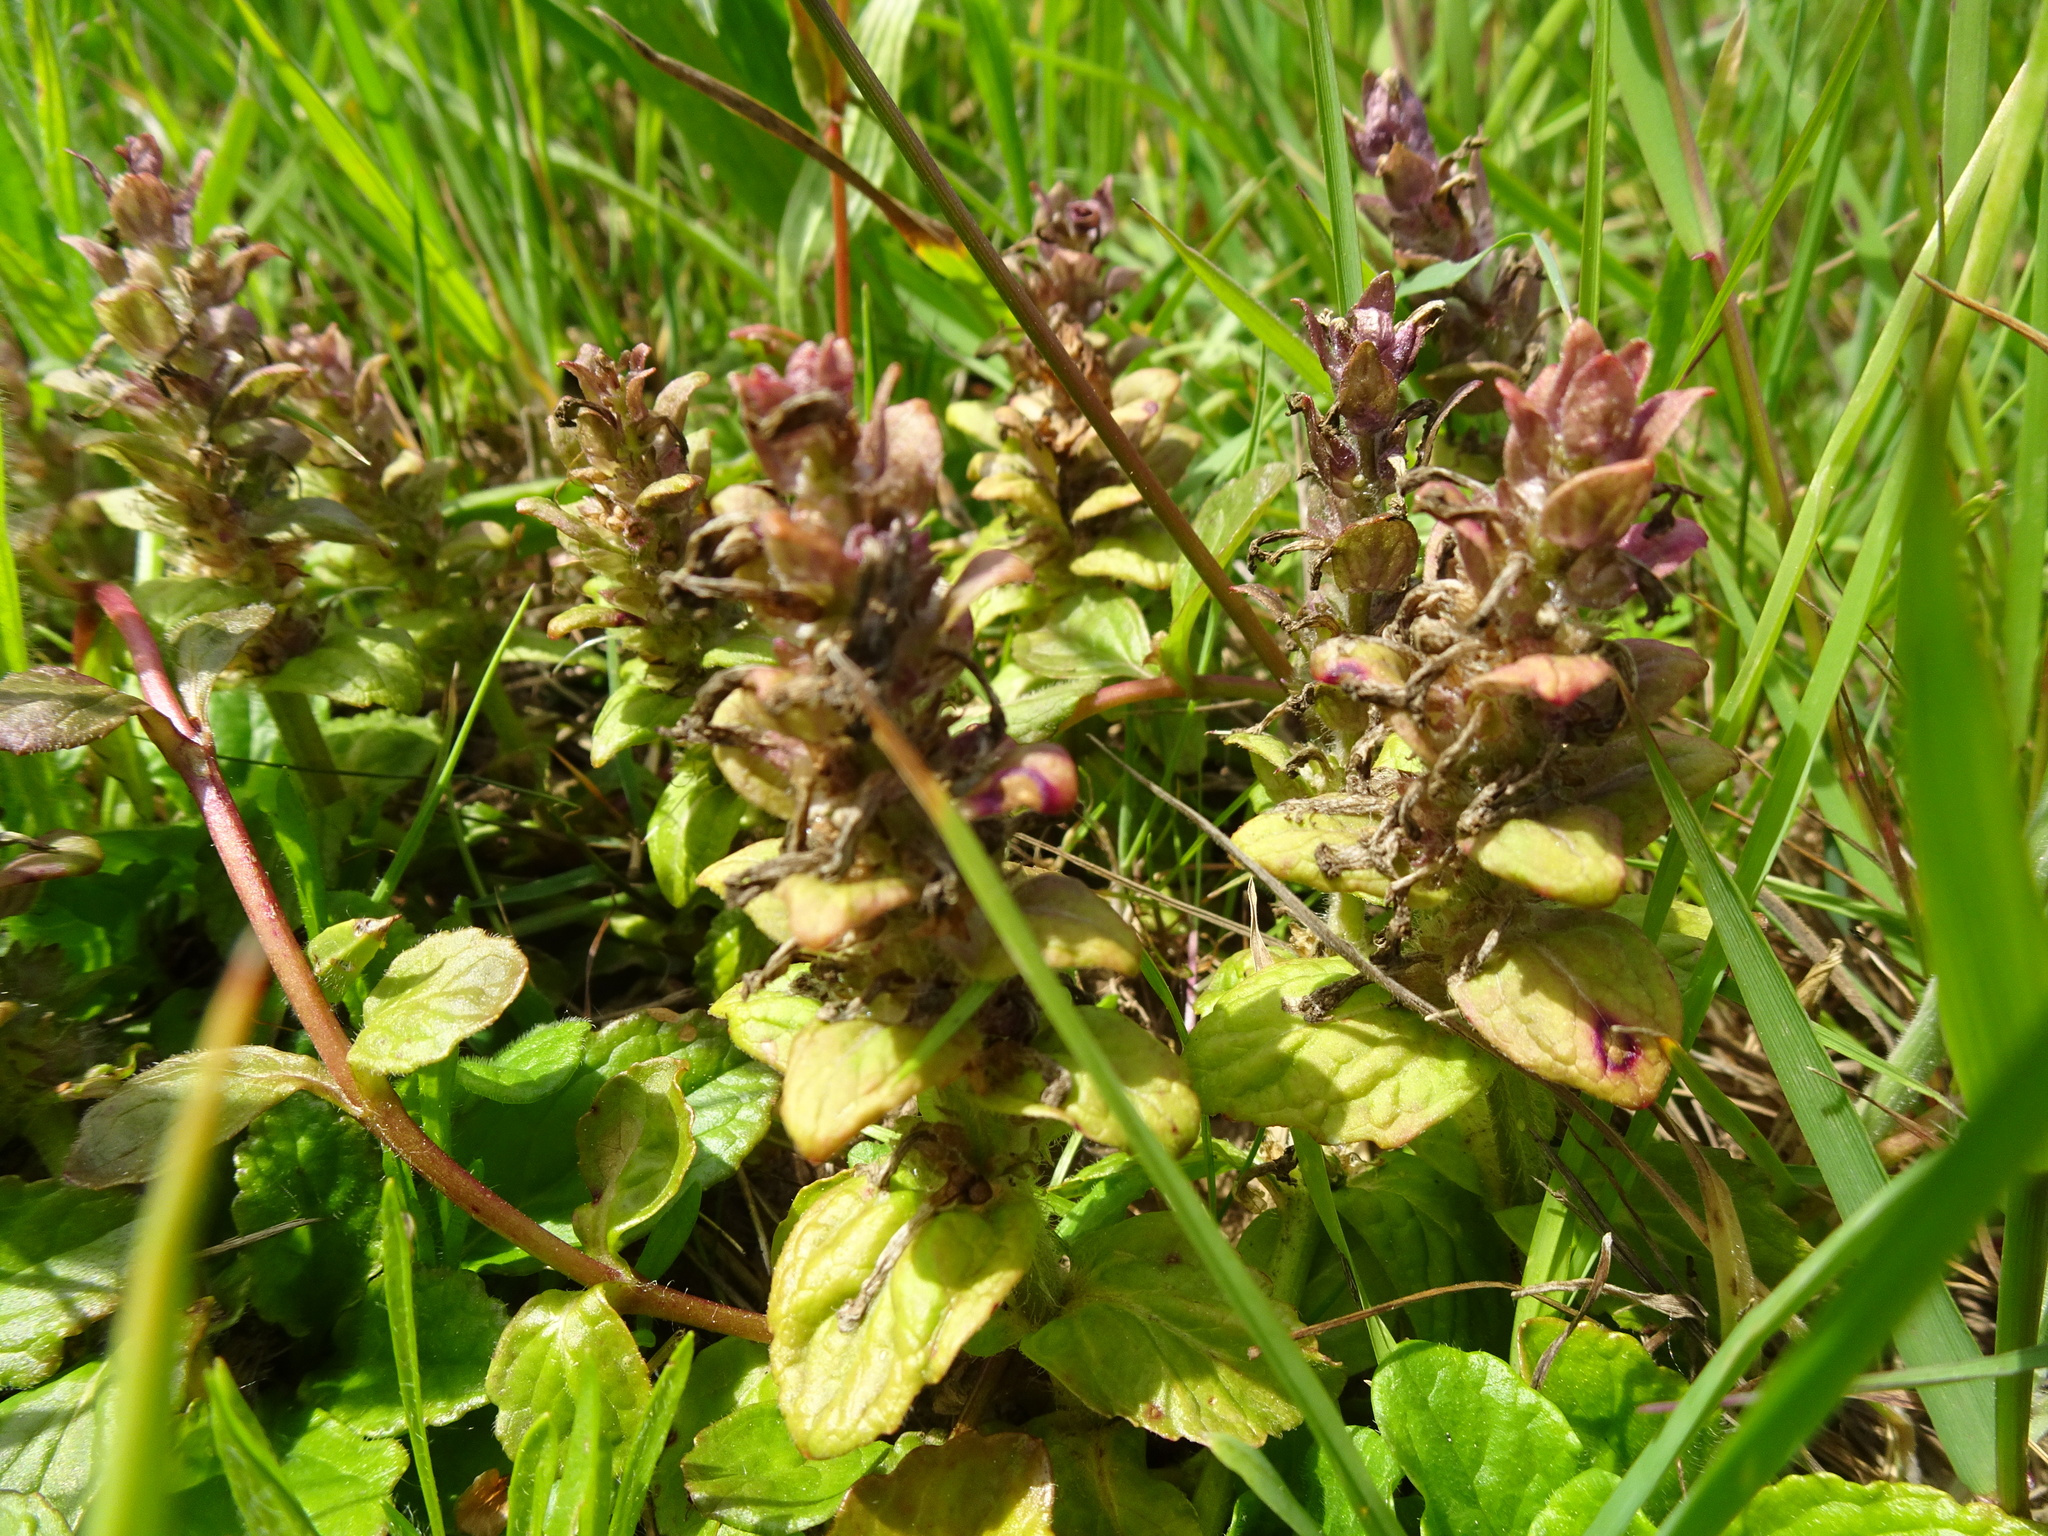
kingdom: Plantae
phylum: Tracheophyta
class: Magnoliopsida
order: Lamiales
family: Lamiaceae
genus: Ajuga
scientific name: Ajuga reptans
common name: Bugle
